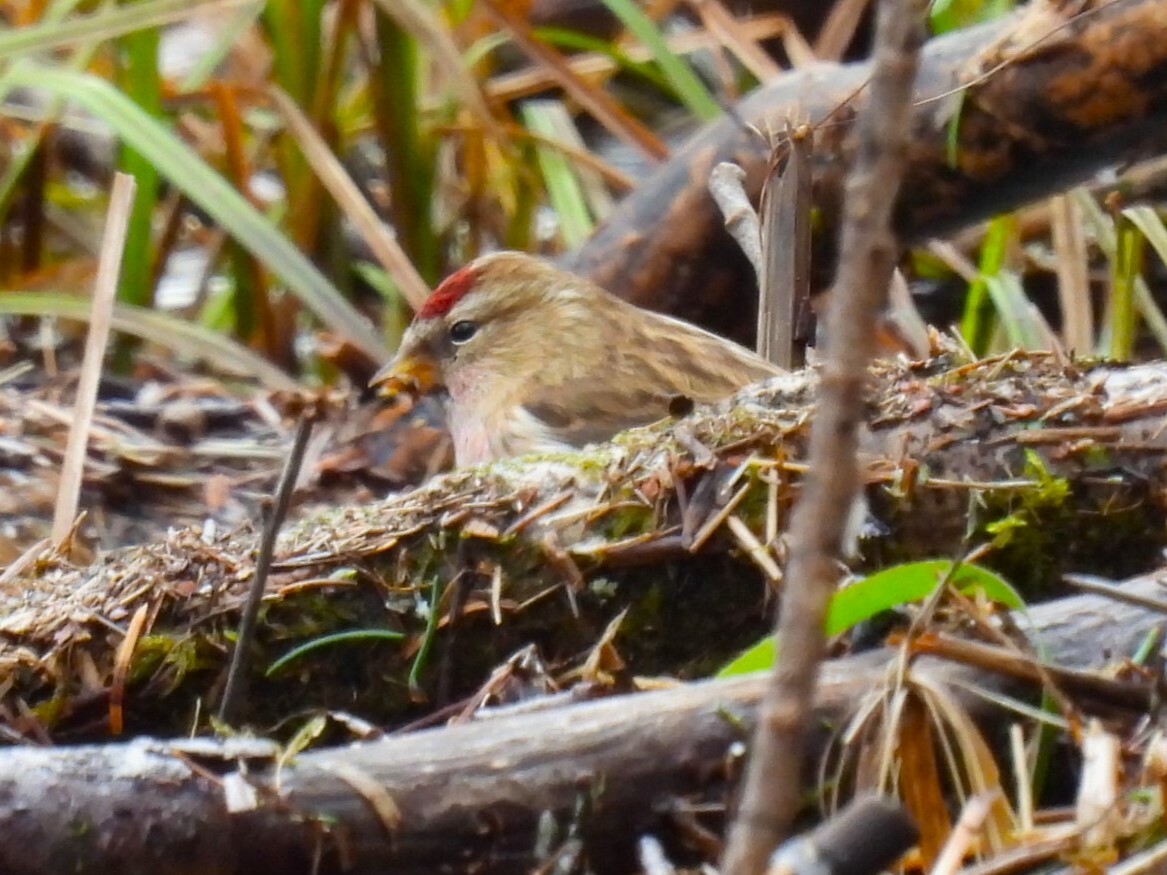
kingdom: Animalia
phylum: Chordata
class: Aves
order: Passeriformes
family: Fringillidae
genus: Acanthis
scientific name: Acanthis flammea
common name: Common redpoll
